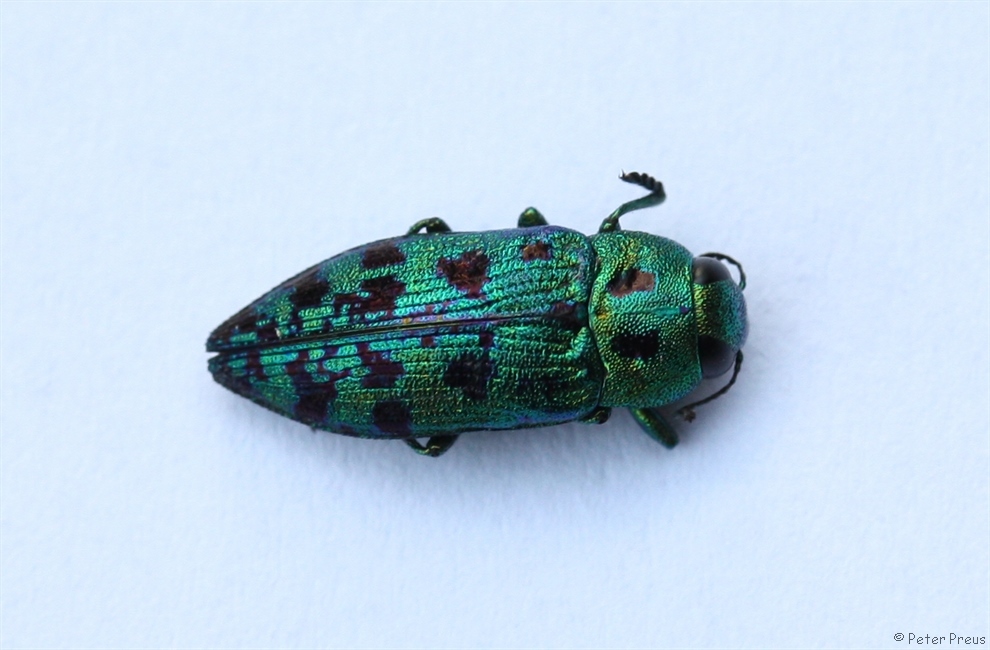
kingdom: Animalia
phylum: Arthropoda
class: Insecta
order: Coleoptera
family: Buprestidae
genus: Lamprodila
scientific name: Lamprodila festiva
